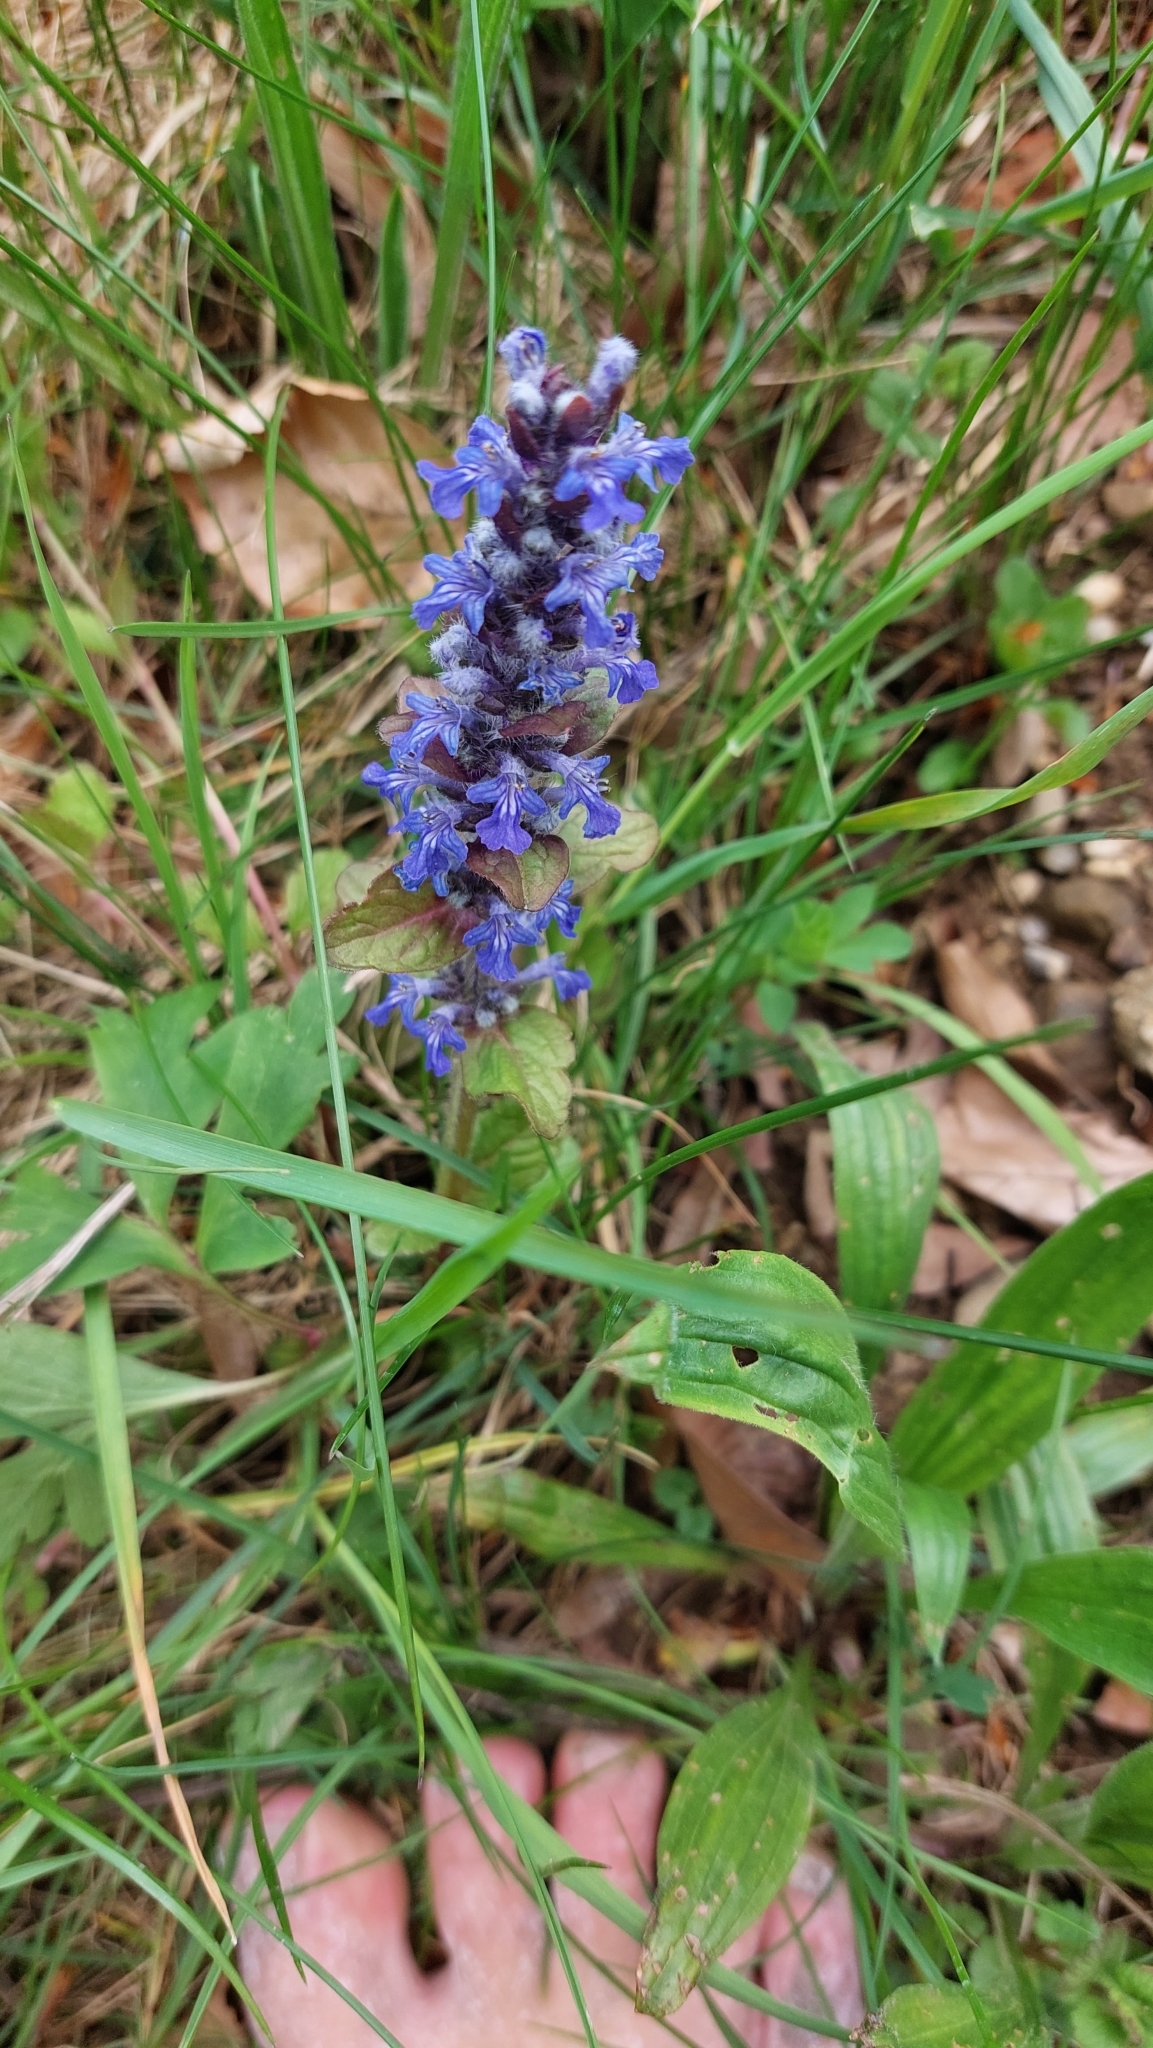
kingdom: Plantae
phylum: Tracheophyta
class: Magnoliopsida
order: Lamiales
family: Lamiaceae
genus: Ajuga
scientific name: Ajuga reptans
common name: Bugle
